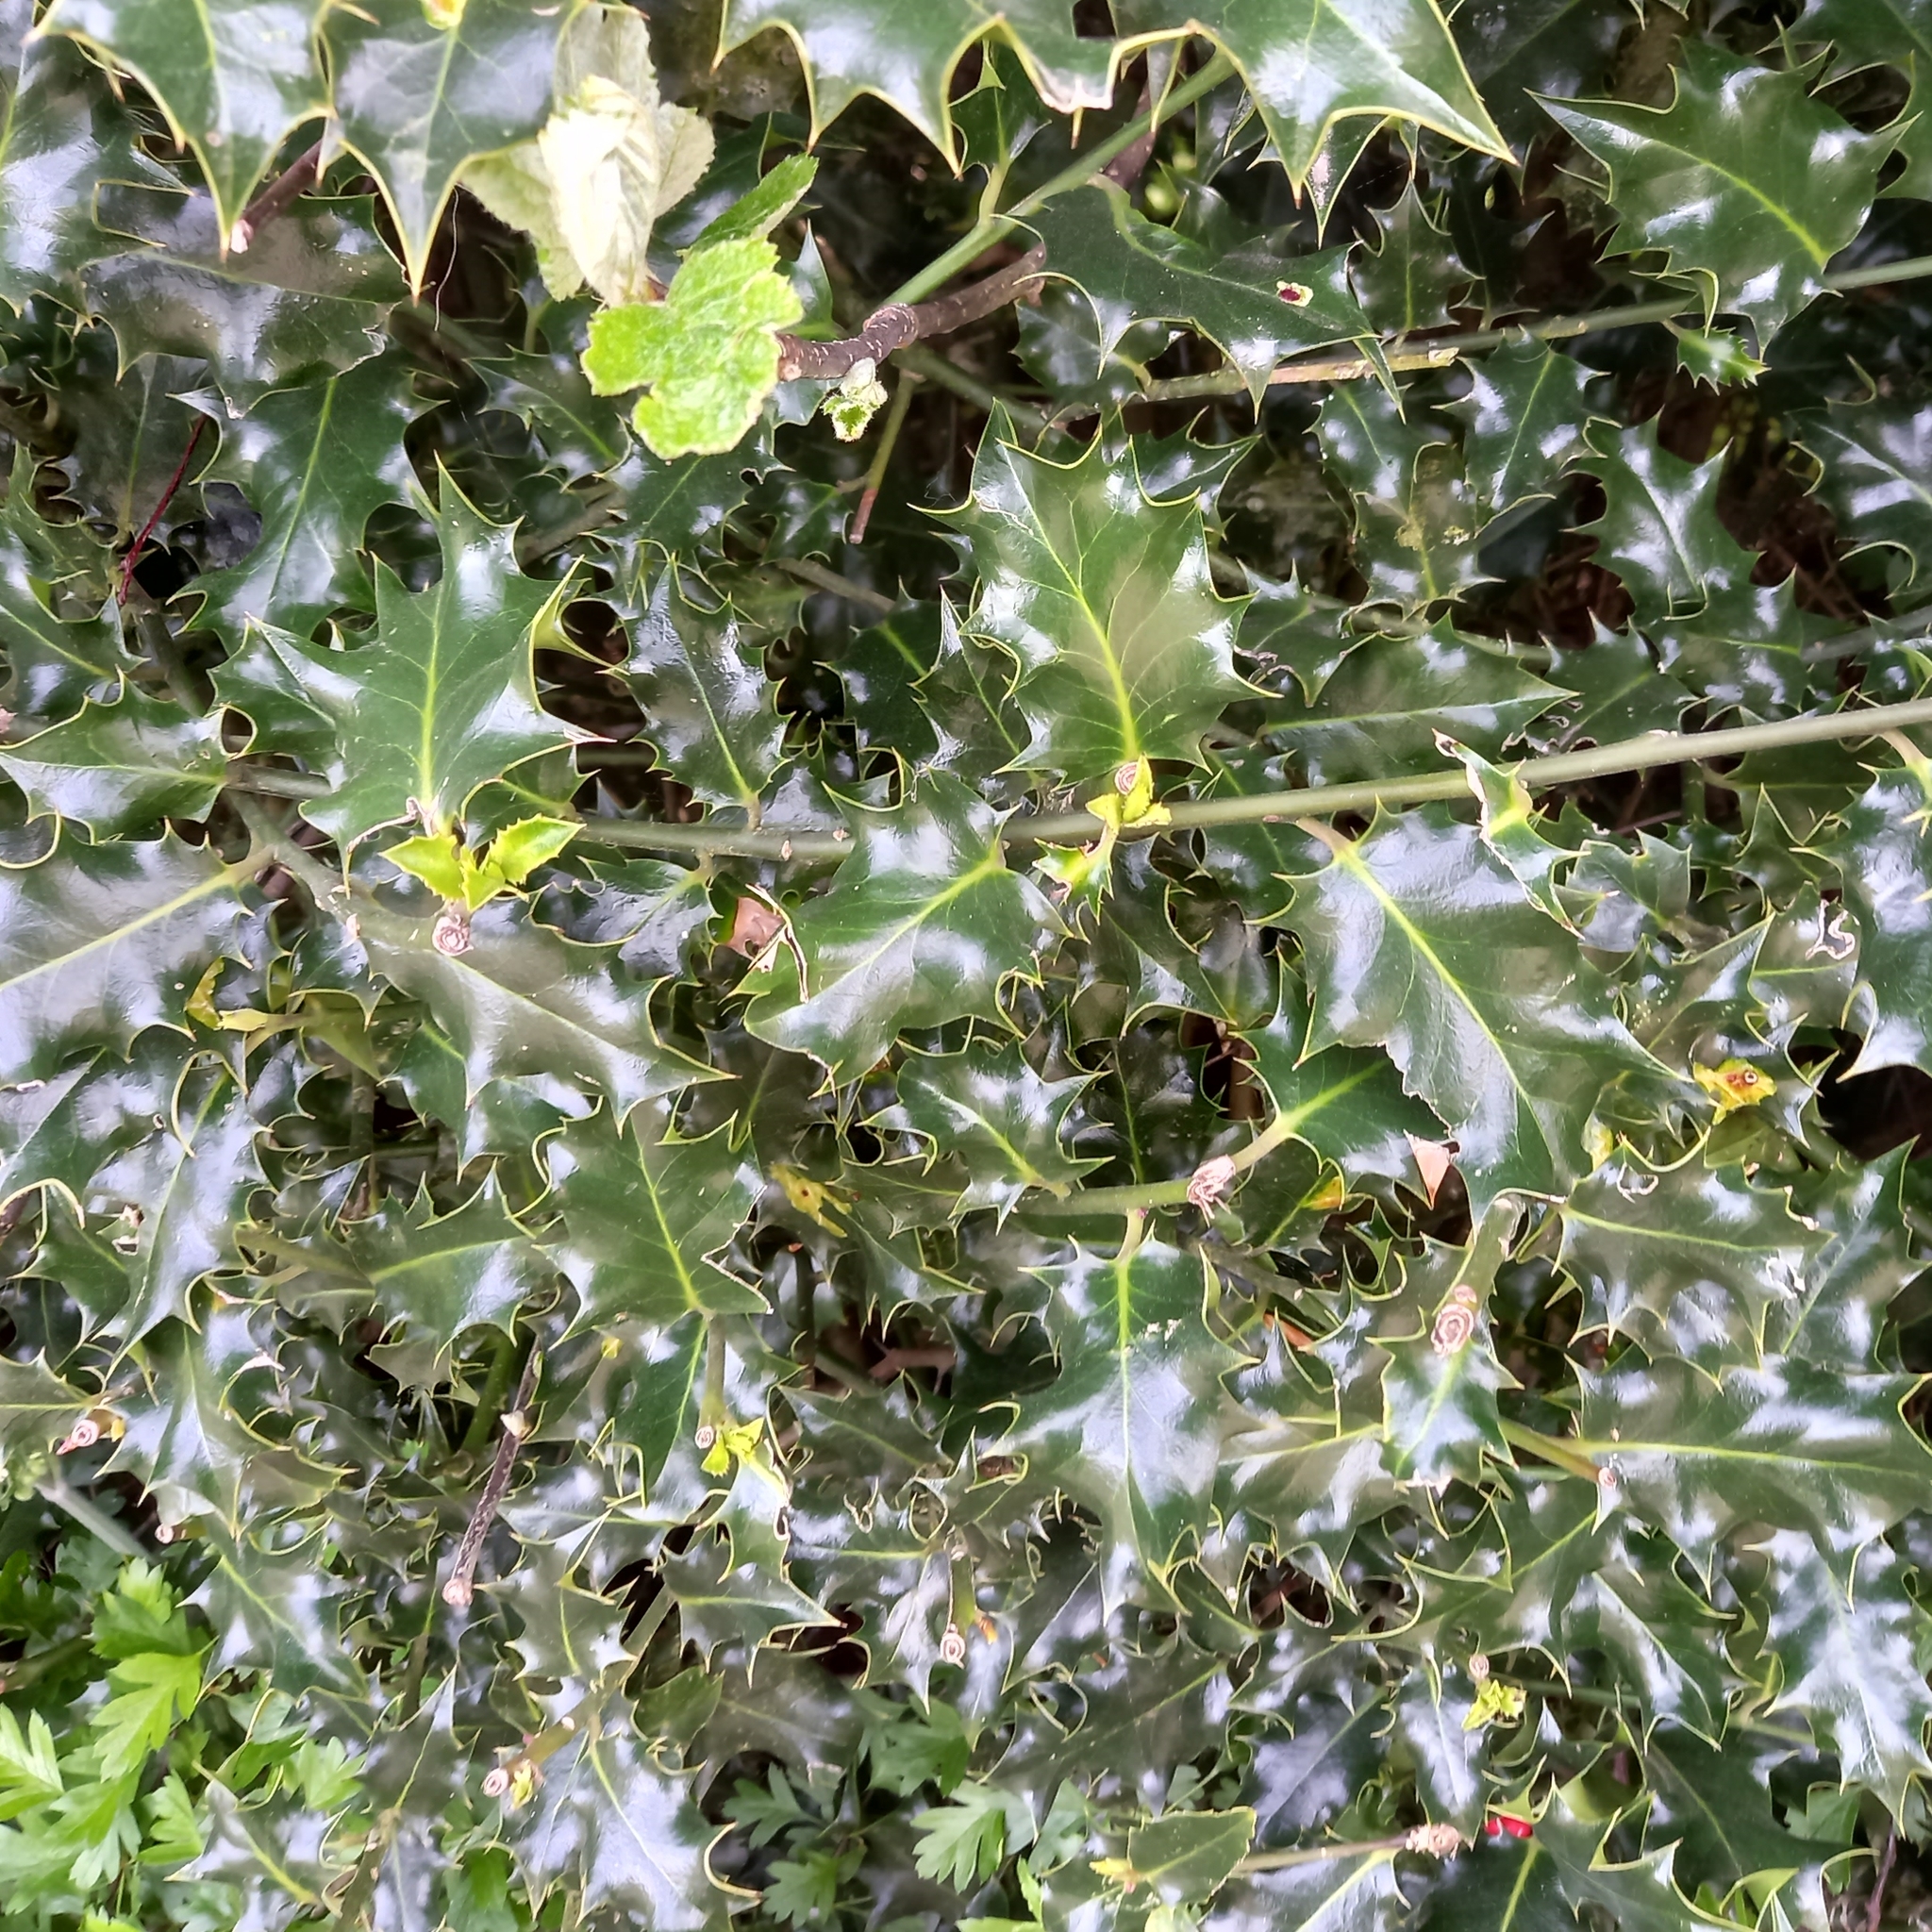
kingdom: Plantae
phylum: Tracheophyta
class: Magnoliopsida
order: Aquifoliales
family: Aquifoliaceae
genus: Ilex
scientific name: Ilex aquifolium
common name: English holly
